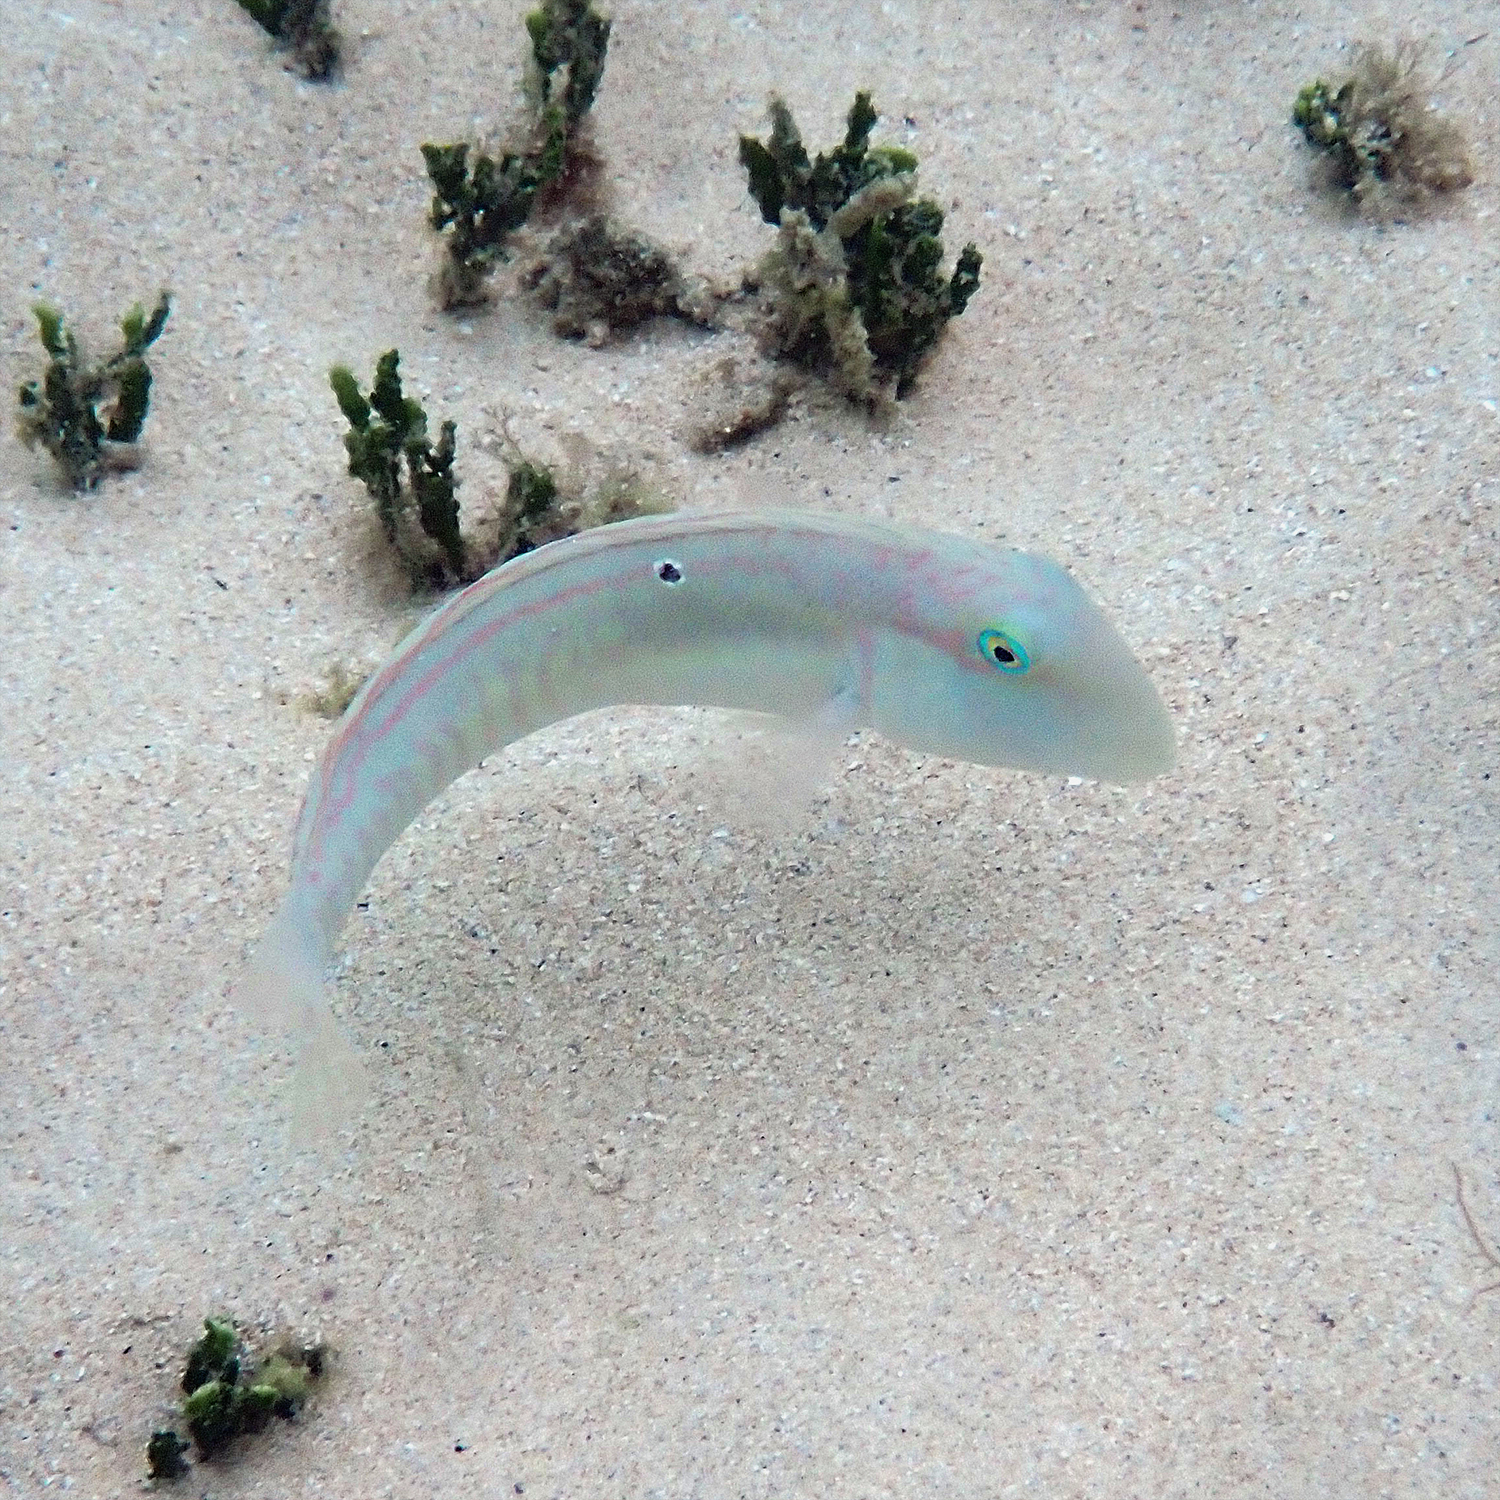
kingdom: Animalia
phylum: Chordata
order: Perciformes
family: Labridae
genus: Cymolutes
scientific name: Cymolutes praetextatus
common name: Knife razorfish
